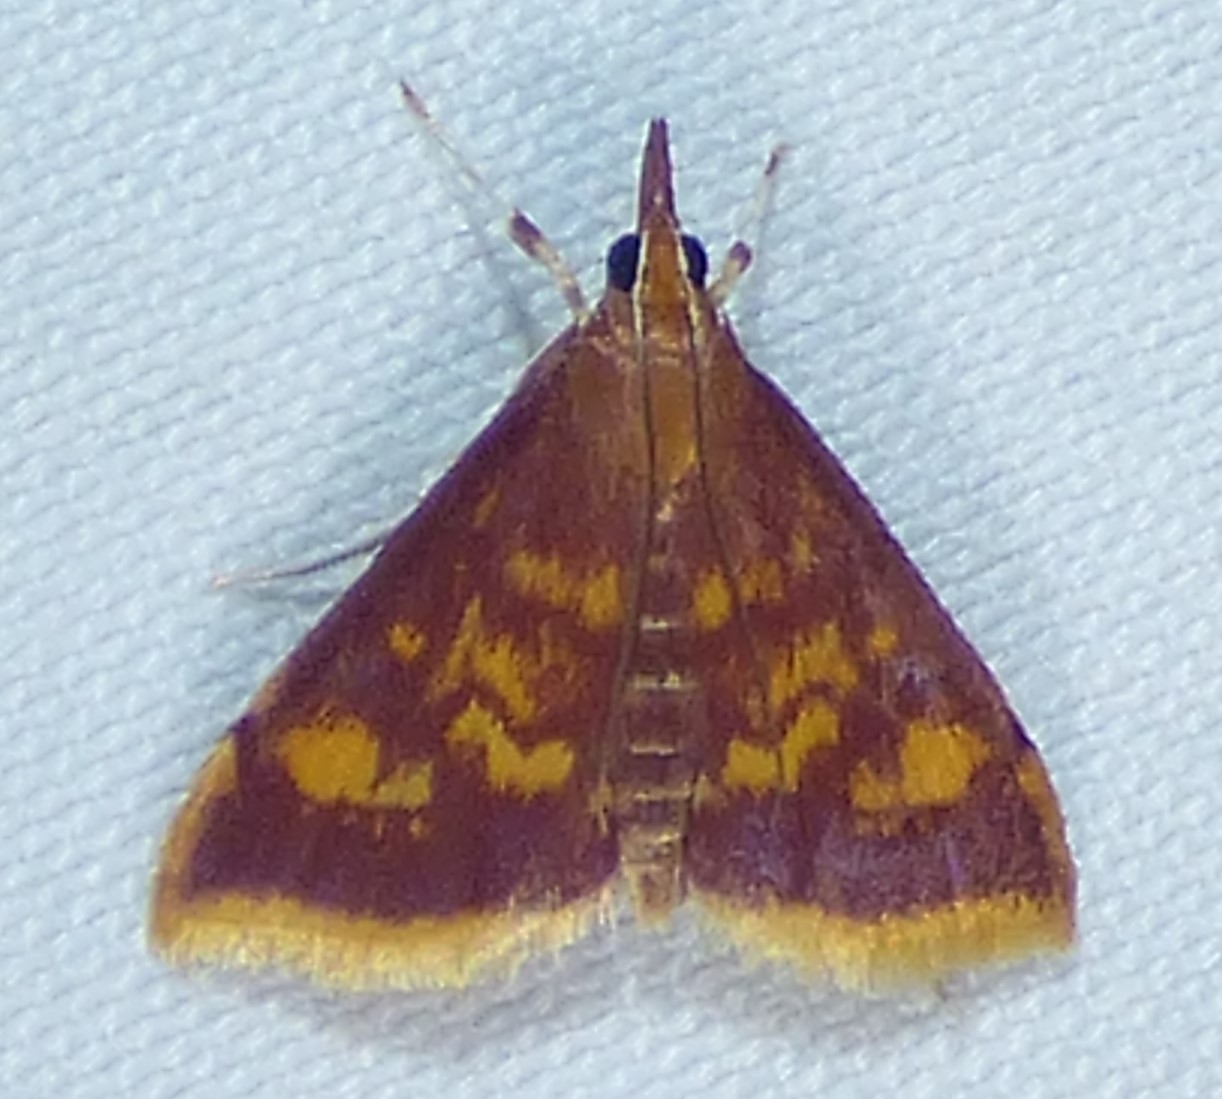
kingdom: Animalia
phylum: Arthropoda
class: Insecta
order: Lepidoptera
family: Crambidae
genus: Pyrausta
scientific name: Pyrausta acrionalis
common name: Mint-loving pyrausta moth
